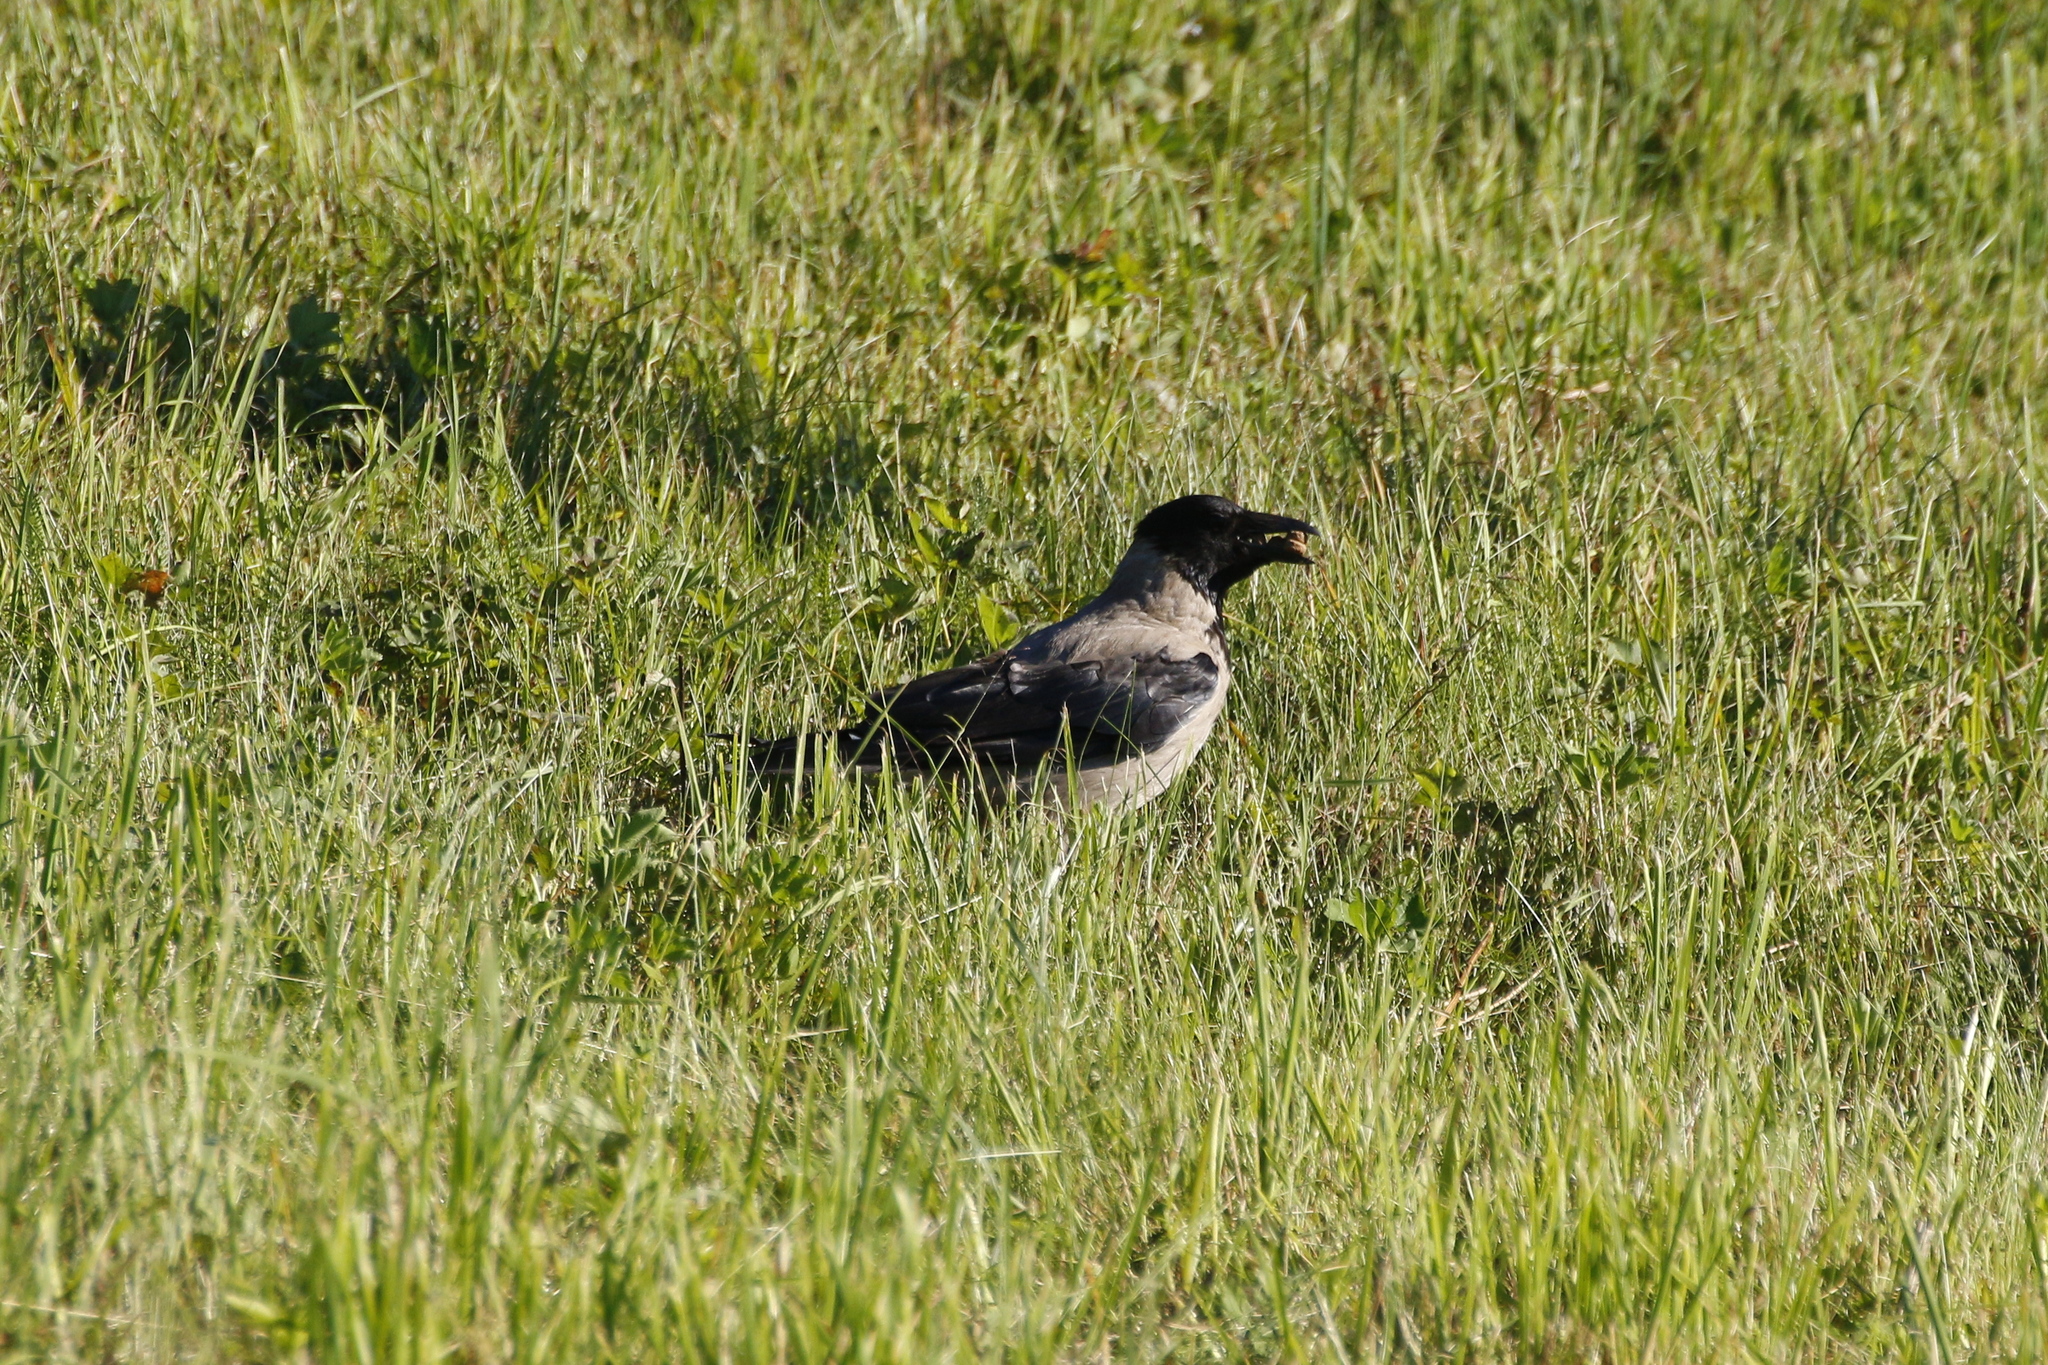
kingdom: Animalia
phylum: Chordata
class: Aves
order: Passeriformes
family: Corvidae
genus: Corvus
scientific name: Corvus cornix
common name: Hooded crow
